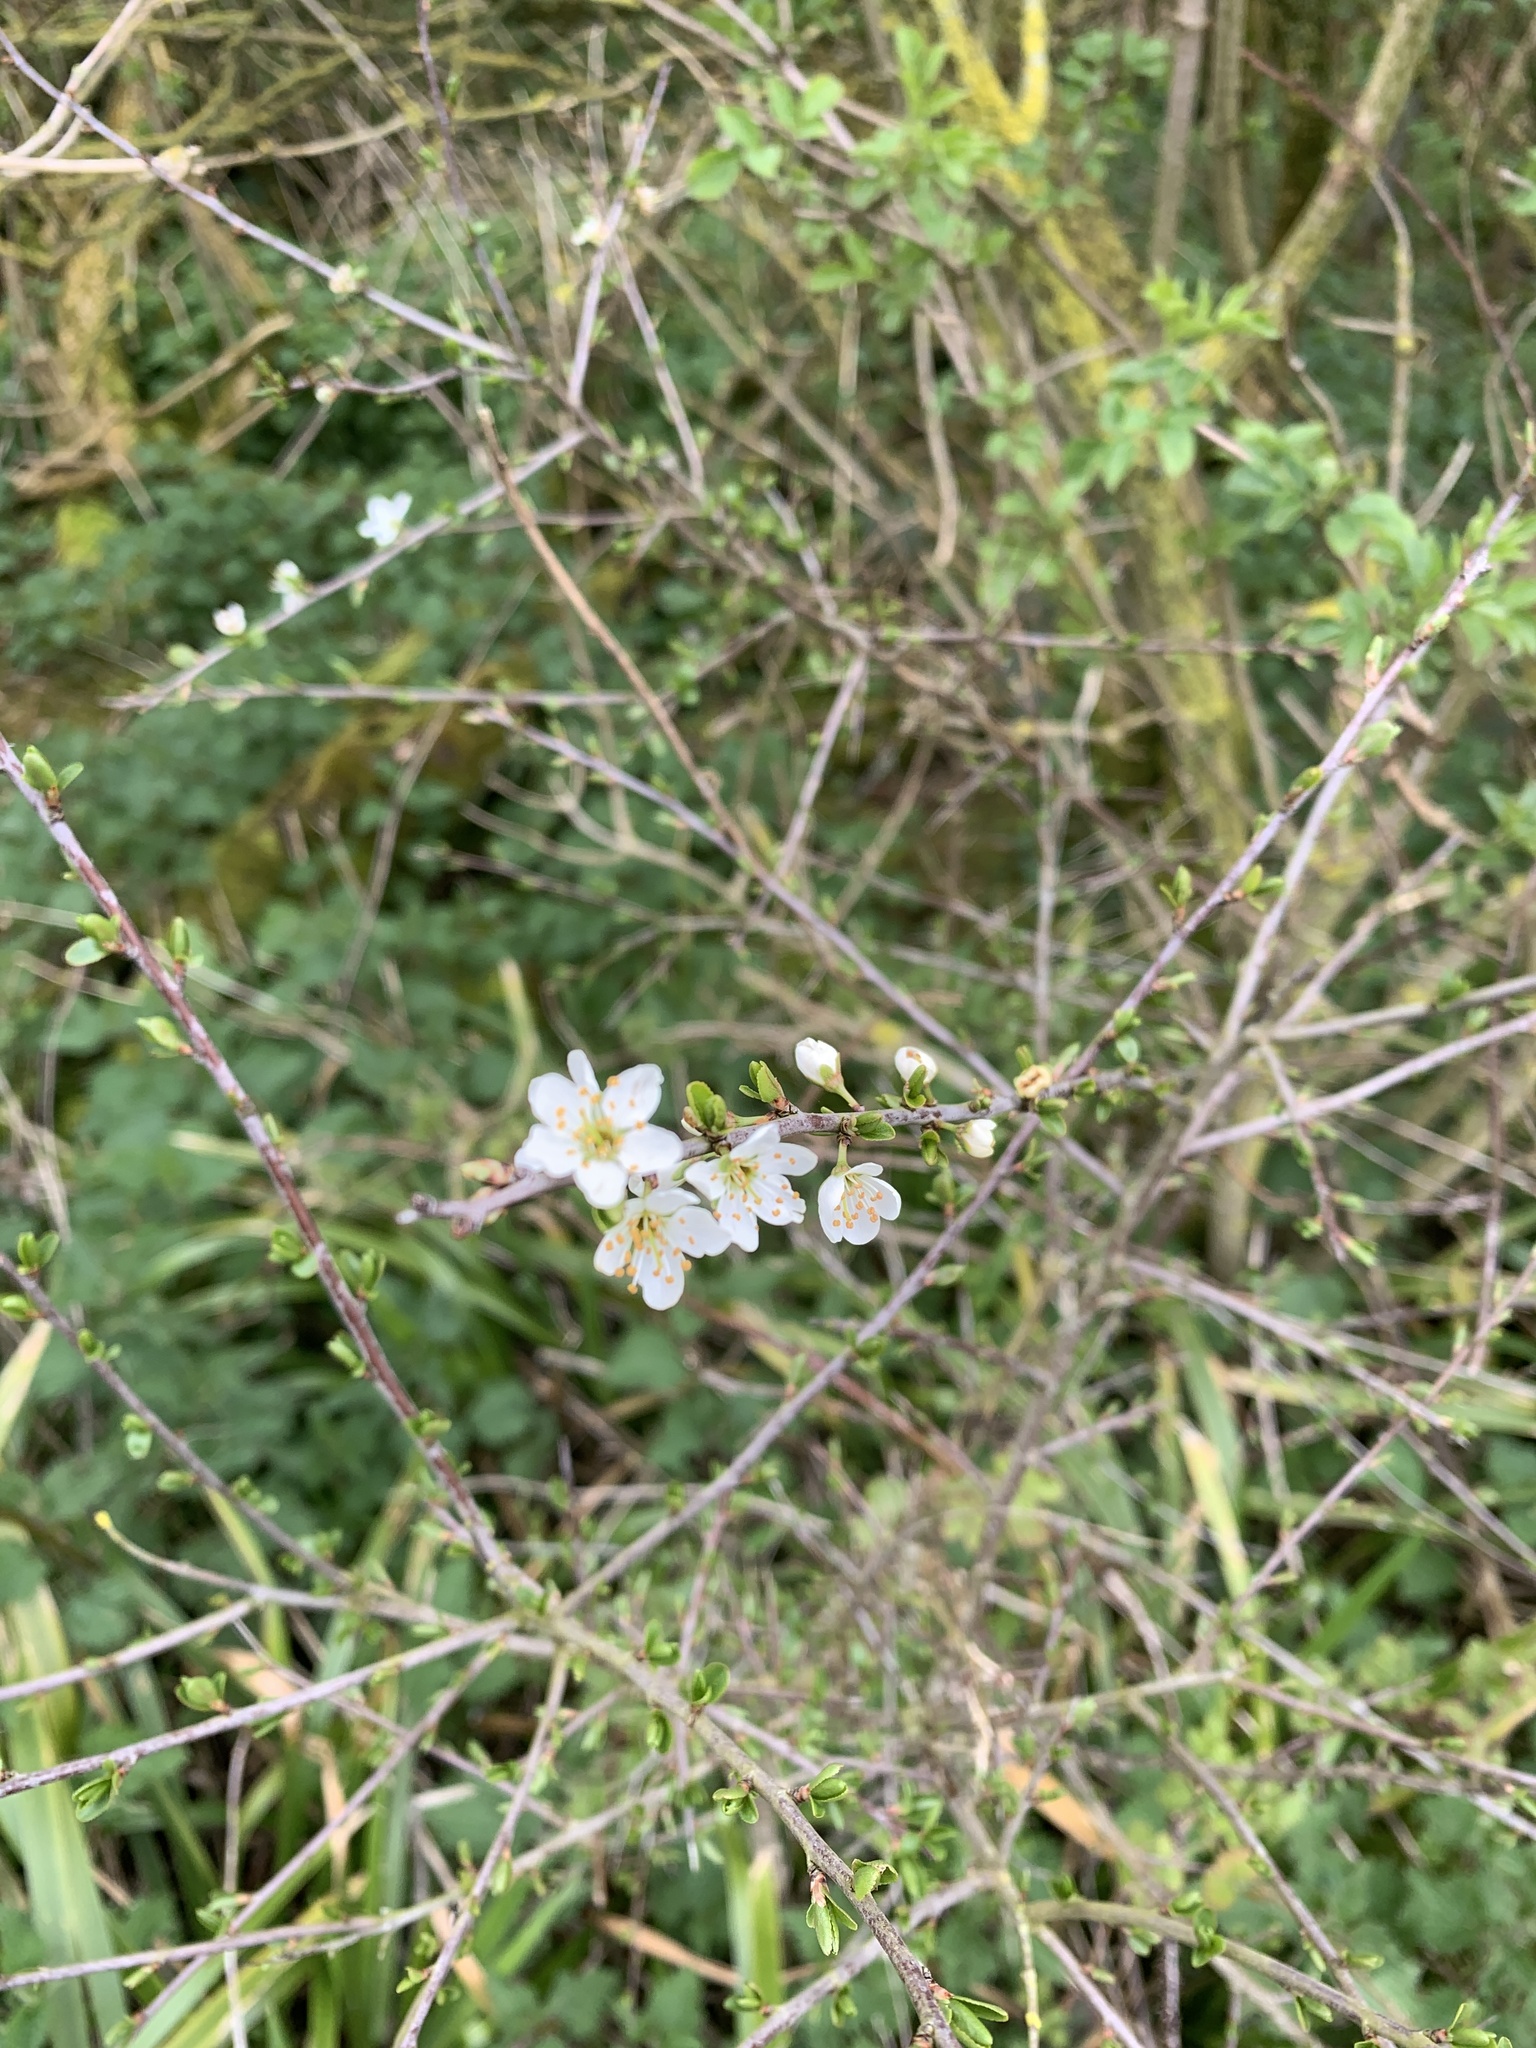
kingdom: Plantae
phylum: Tracheophyta
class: Magnoliopsida
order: Rosales
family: Rosaceae
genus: Prunus
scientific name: Prunus spinosa
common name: Blackthorn
